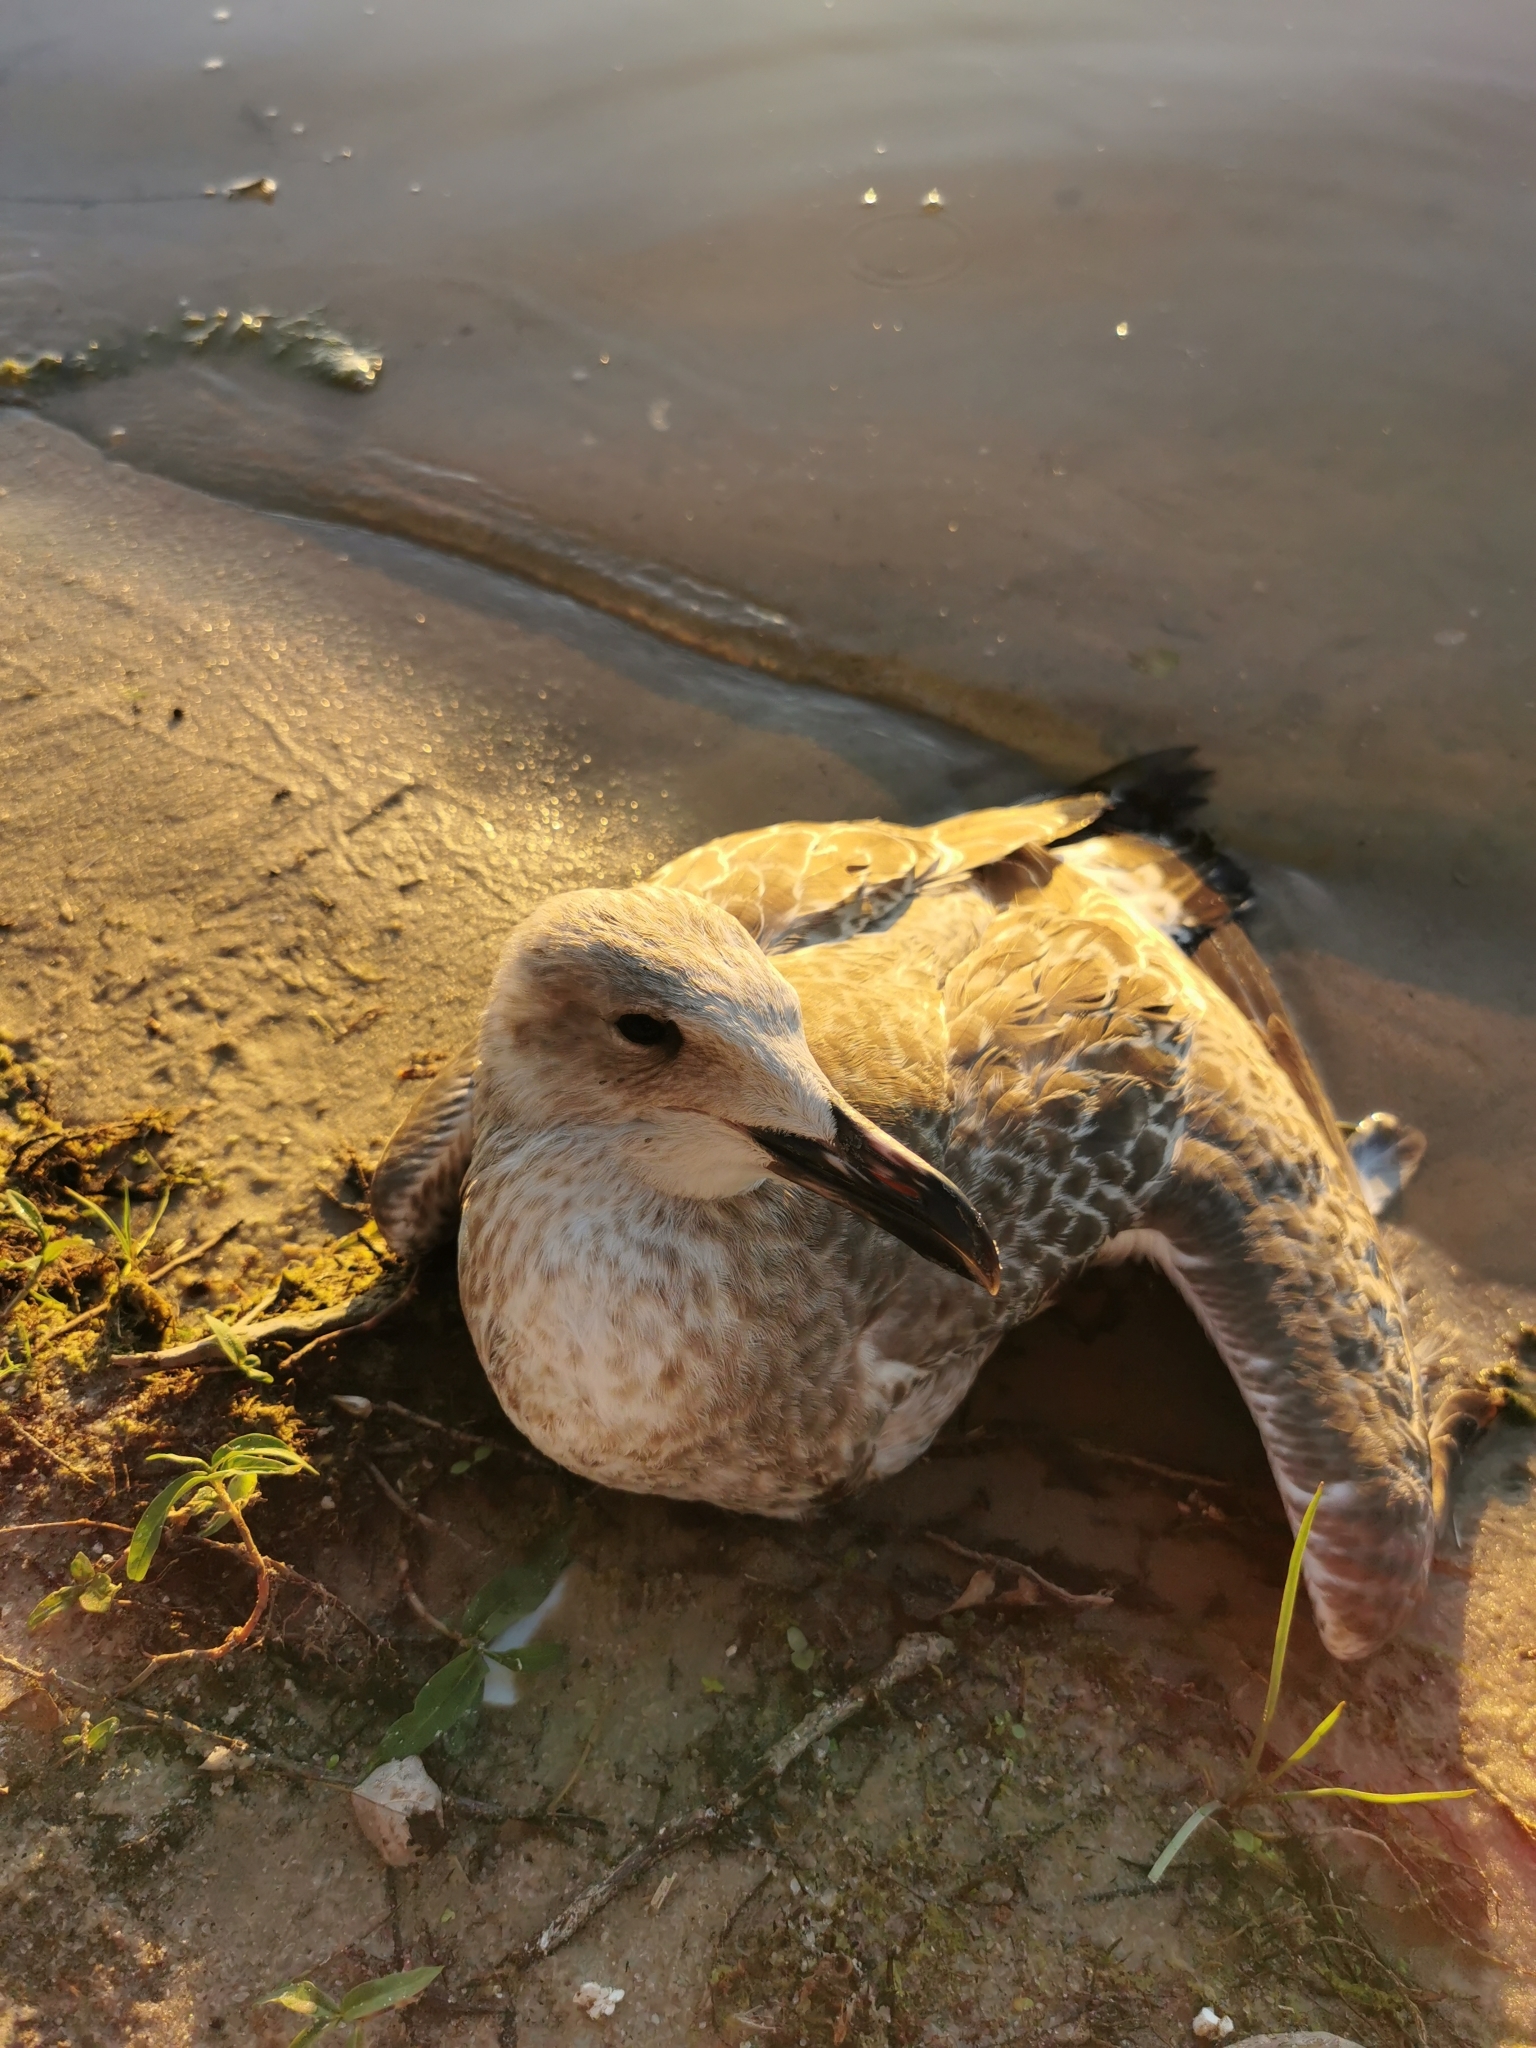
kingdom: Animalia
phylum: Chordata
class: Aves
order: Charadriiformes
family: Laridae
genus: Larus
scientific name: Larus cachinnans
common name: Caspian gull
